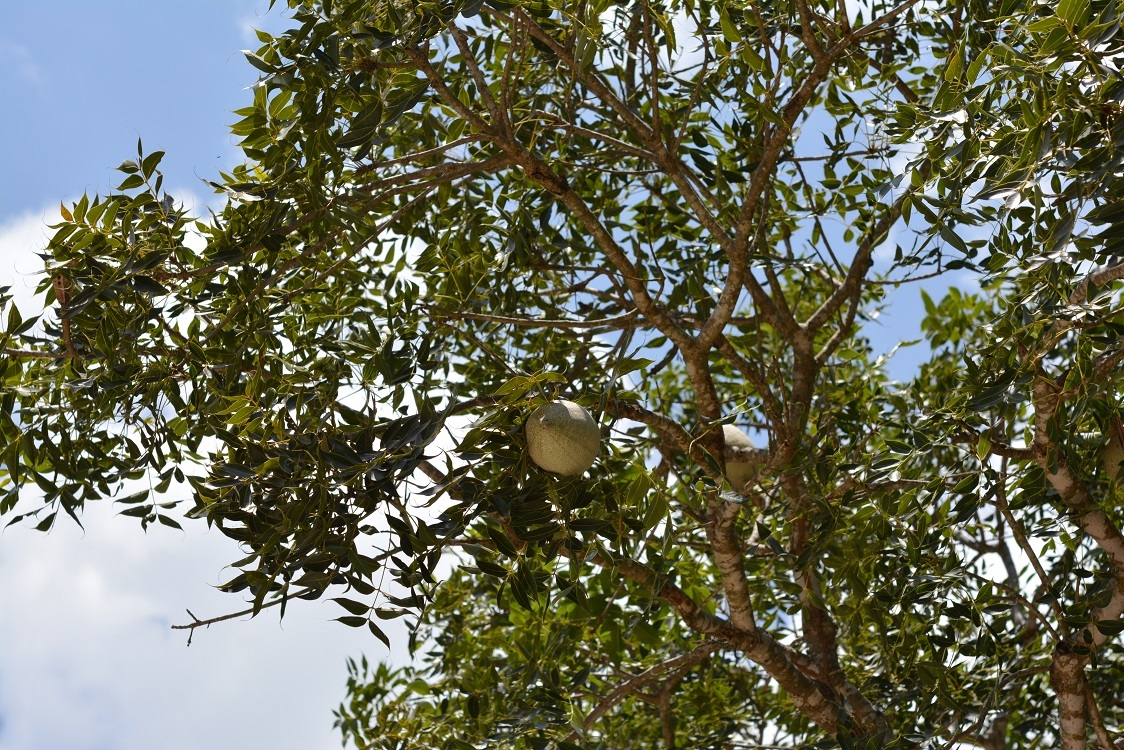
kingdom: Plantae
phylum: Tracheophyta
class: Magnoliopsida
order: Sapindales
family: Meliaceae
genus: Swietenia
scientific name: Swietenia humilis
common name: Pacific coast mahogany
